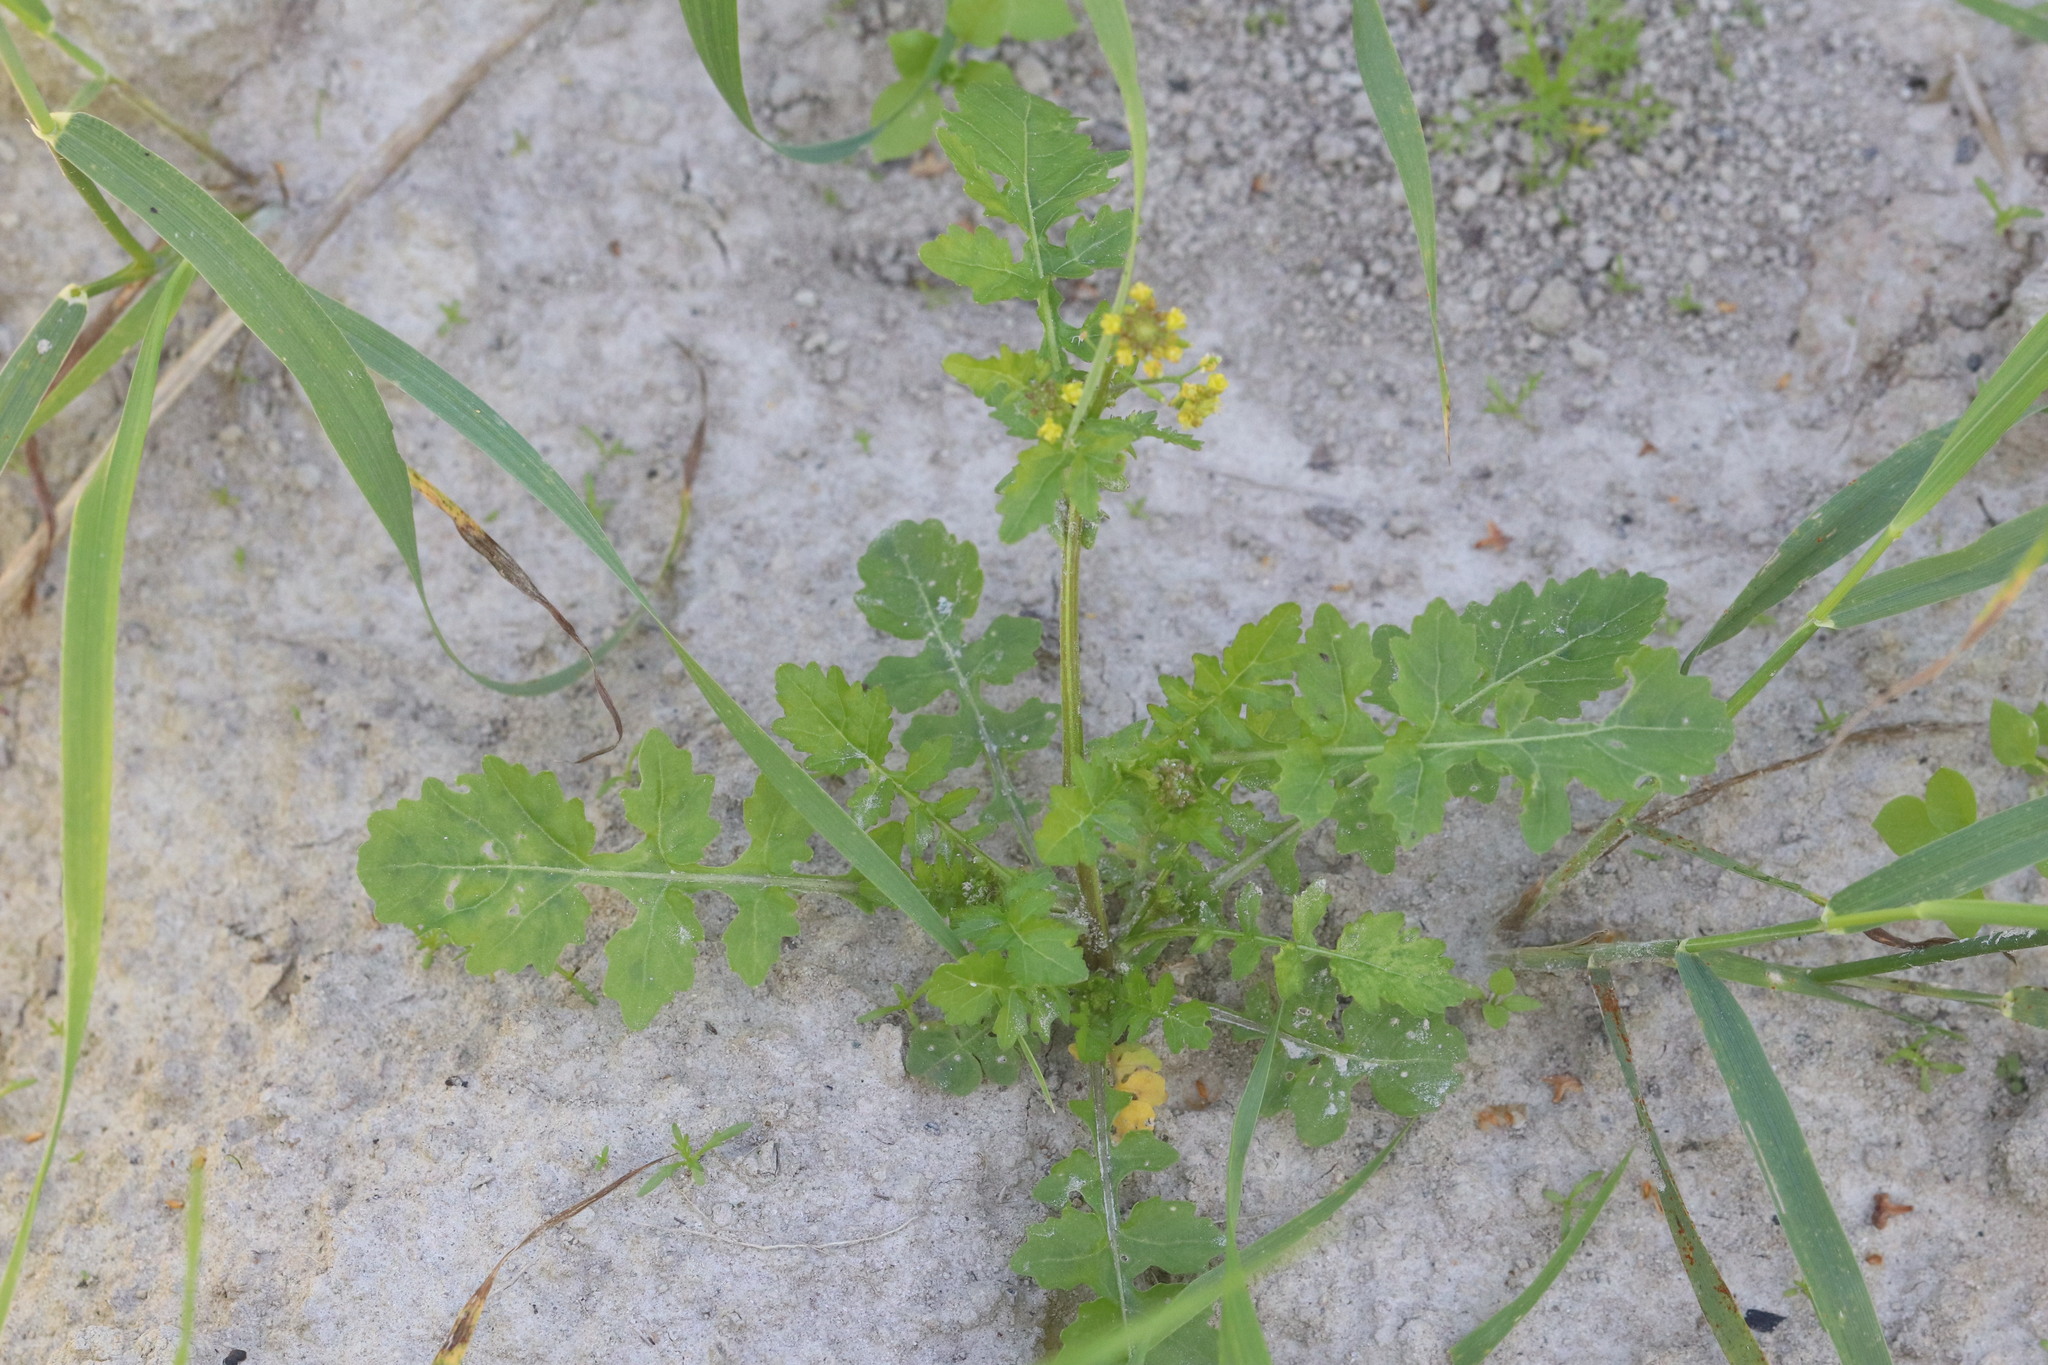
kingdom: Plantae
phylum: Tracheophyta
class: Magnoliopsida
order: Brassicales
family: Brassicaceae
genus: Rorippa
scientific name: Rorippa palustris
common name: Marsh yellow-cress
